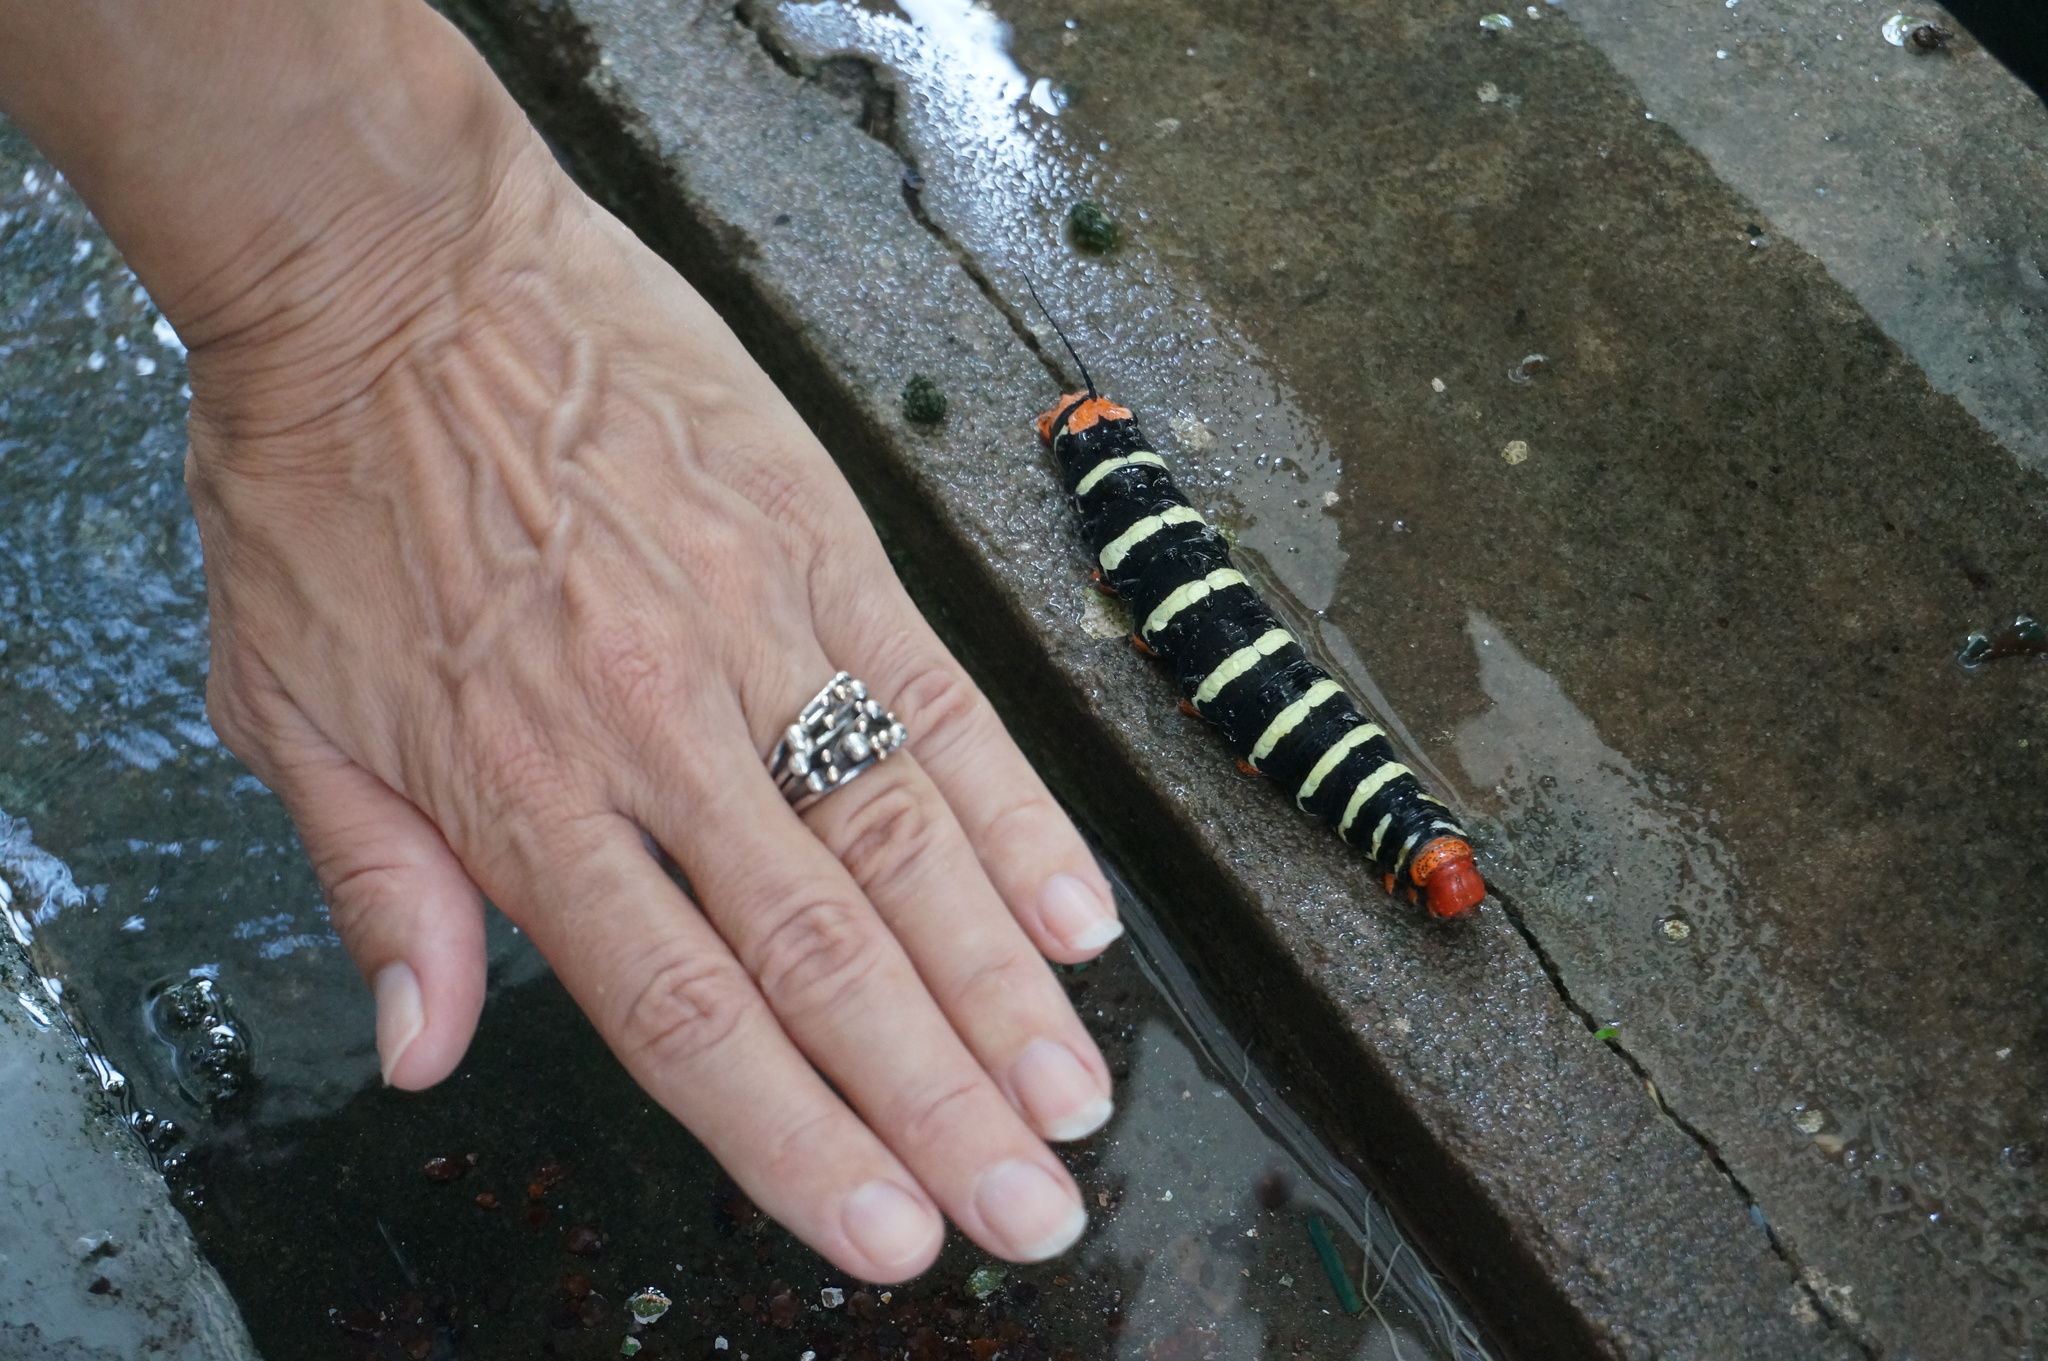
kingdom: Animalia
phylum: Arthropoda
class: Insecta
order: Lepidoptera
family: Sphingidae
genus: Pseudosphinx
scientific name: Pseudosphinx tetrio
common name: Tetrio sphinx
